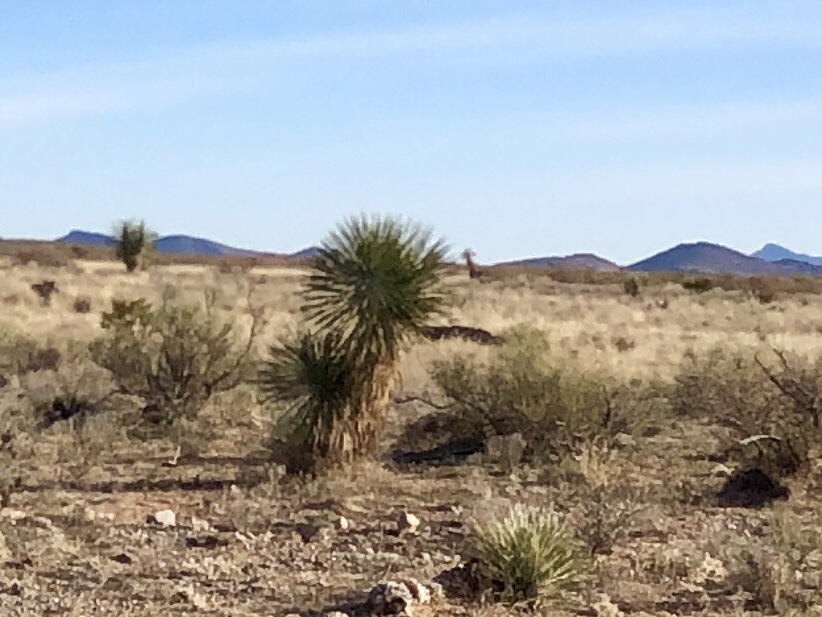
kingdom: Plantae
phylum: Tracheophyta
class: Liliopsida
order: Asparagales
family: Asparagaceae
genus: Yucca
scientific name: Yucca elata
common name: Palmella
